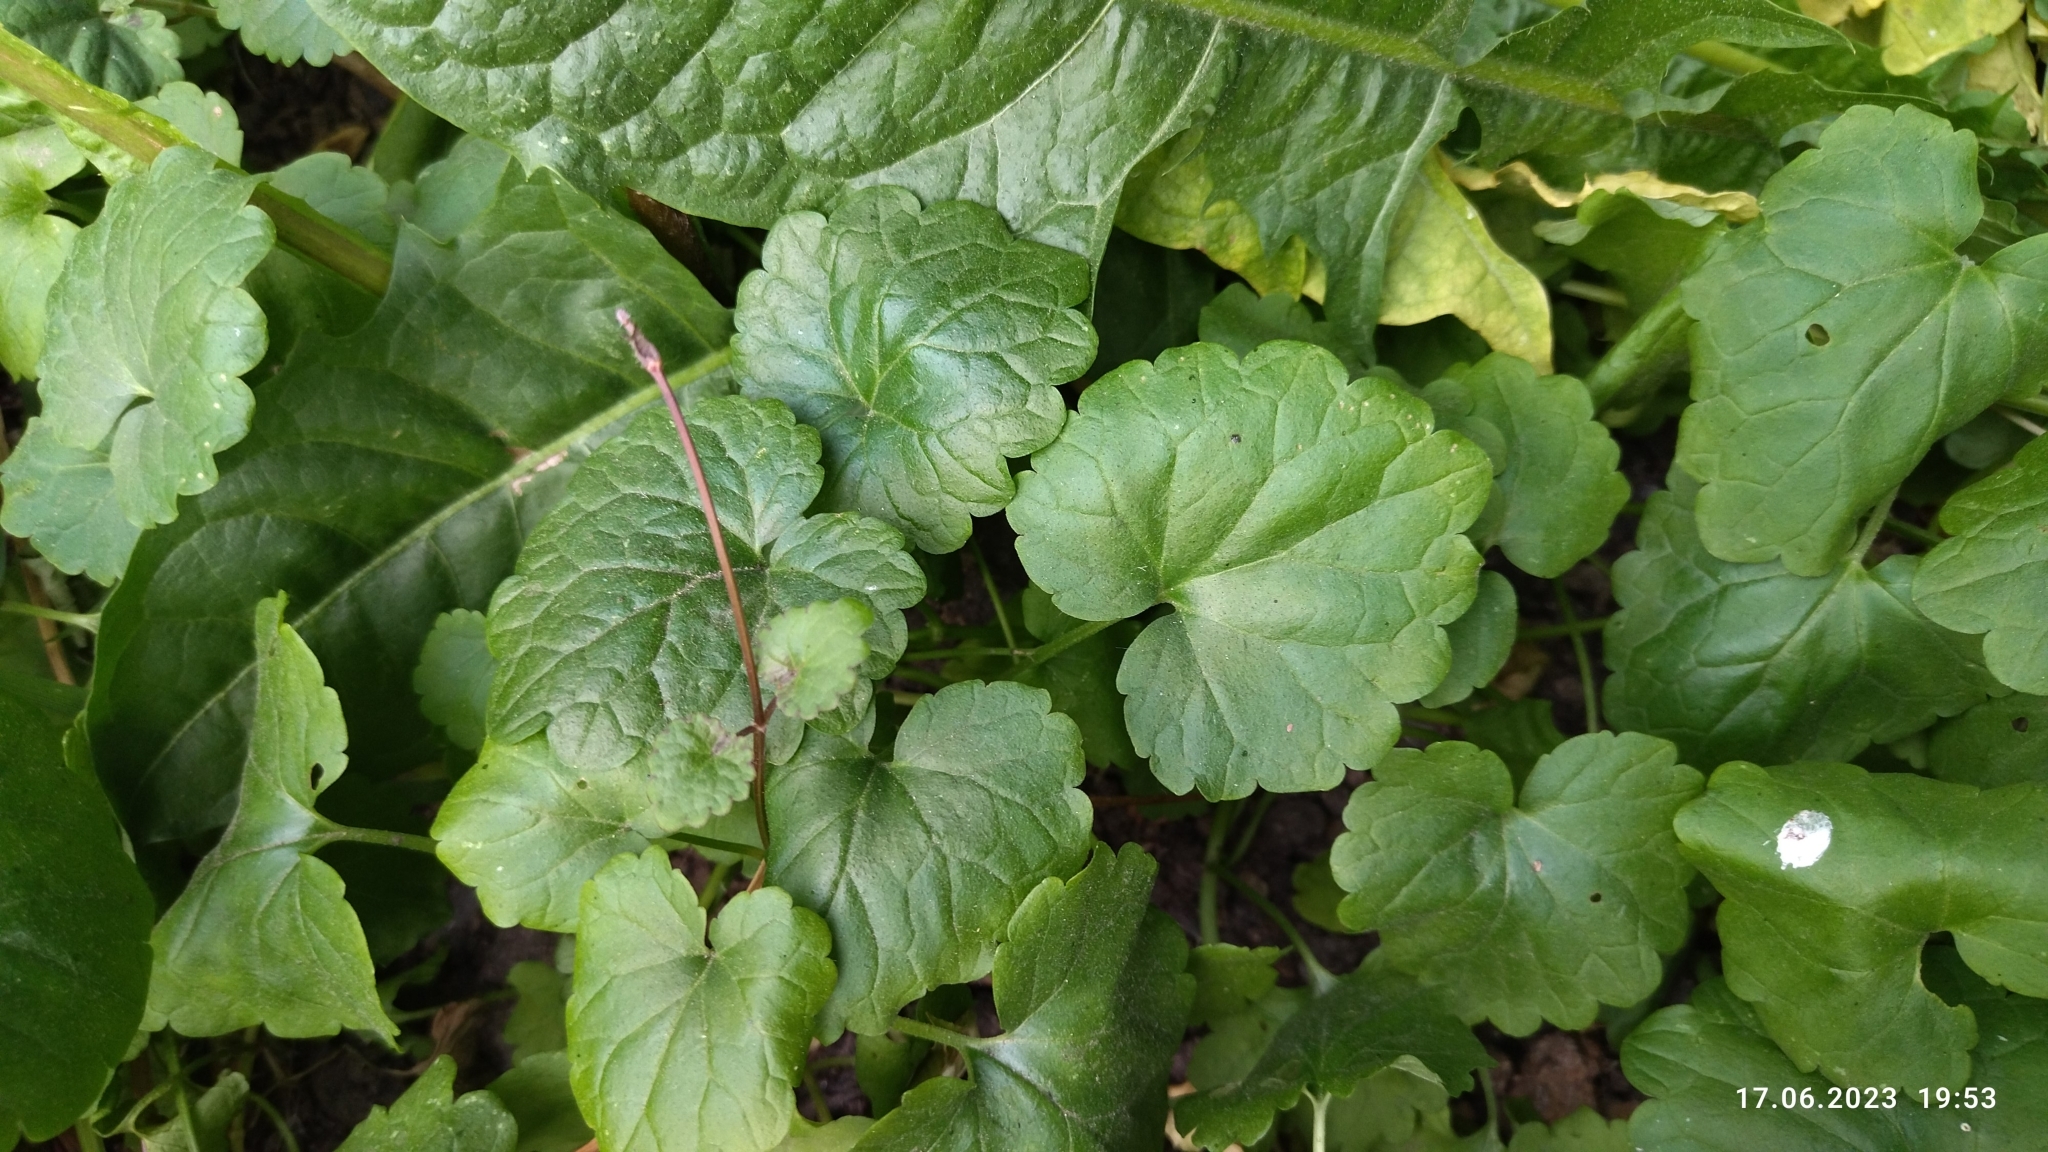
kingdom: Plantae
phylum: Tracheophyta
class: Magnoliopsida
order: Lamiales
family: Lamiaceae
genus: Glechoma
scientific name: Glechoma hederacea
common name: Ground ivy
